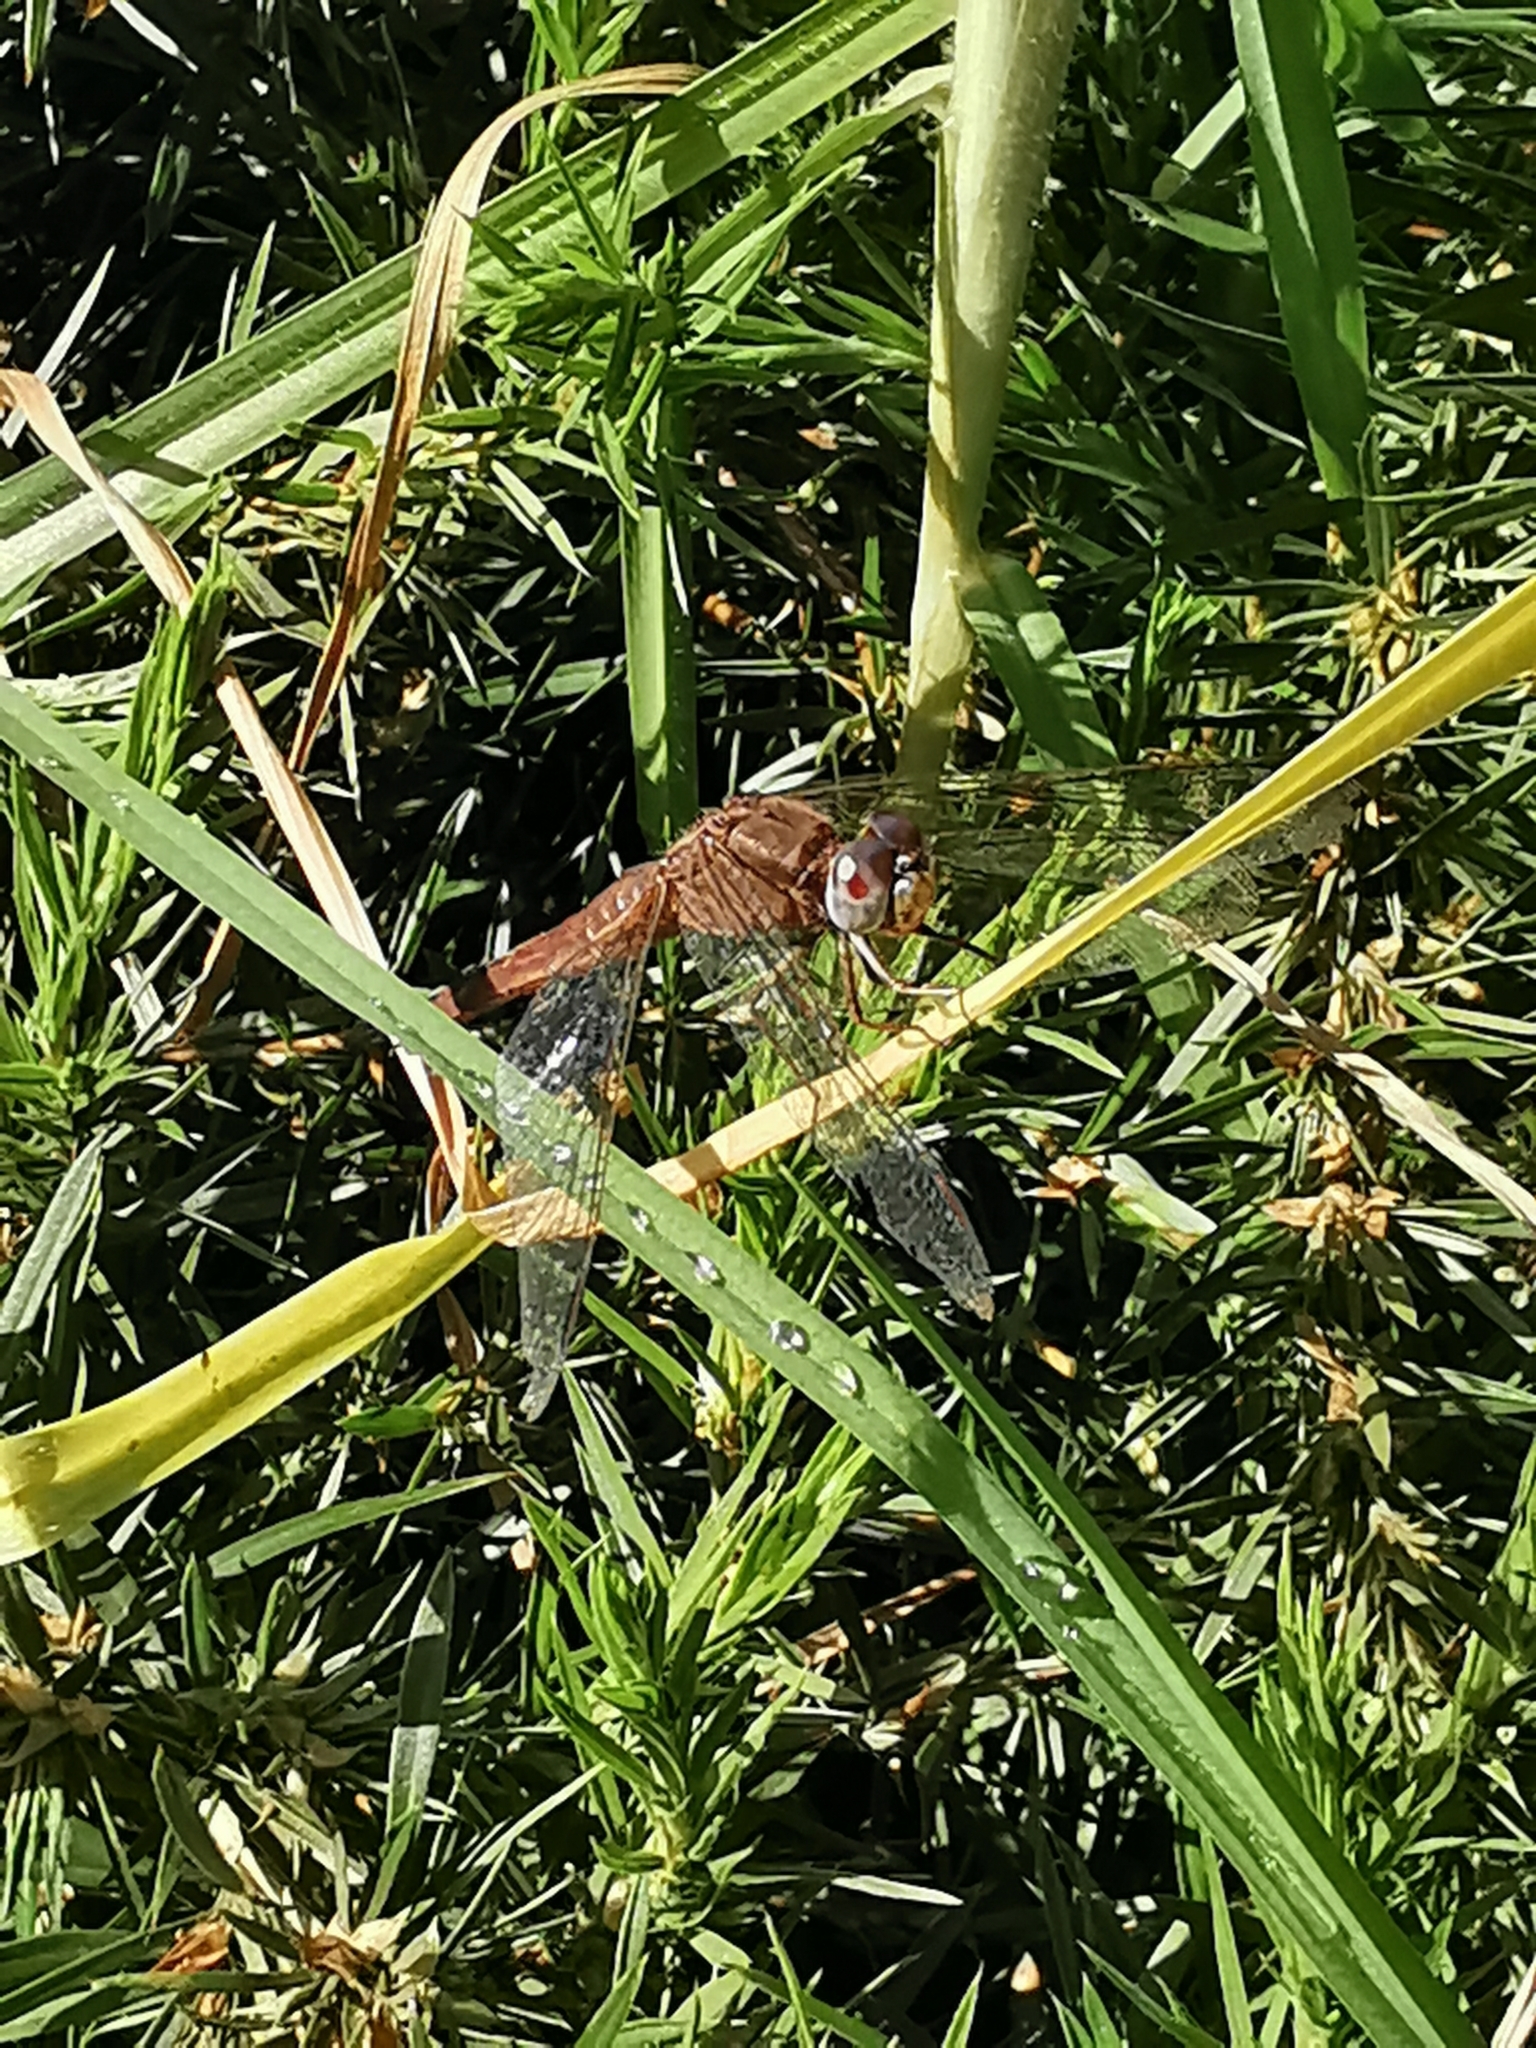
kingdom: Animalia
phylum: Arthropoda
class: Insecta
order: Odonata
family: Libellulidae
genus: Crocothemis
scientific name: Crocothemis erythraea
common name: Scarlet dragonfly
